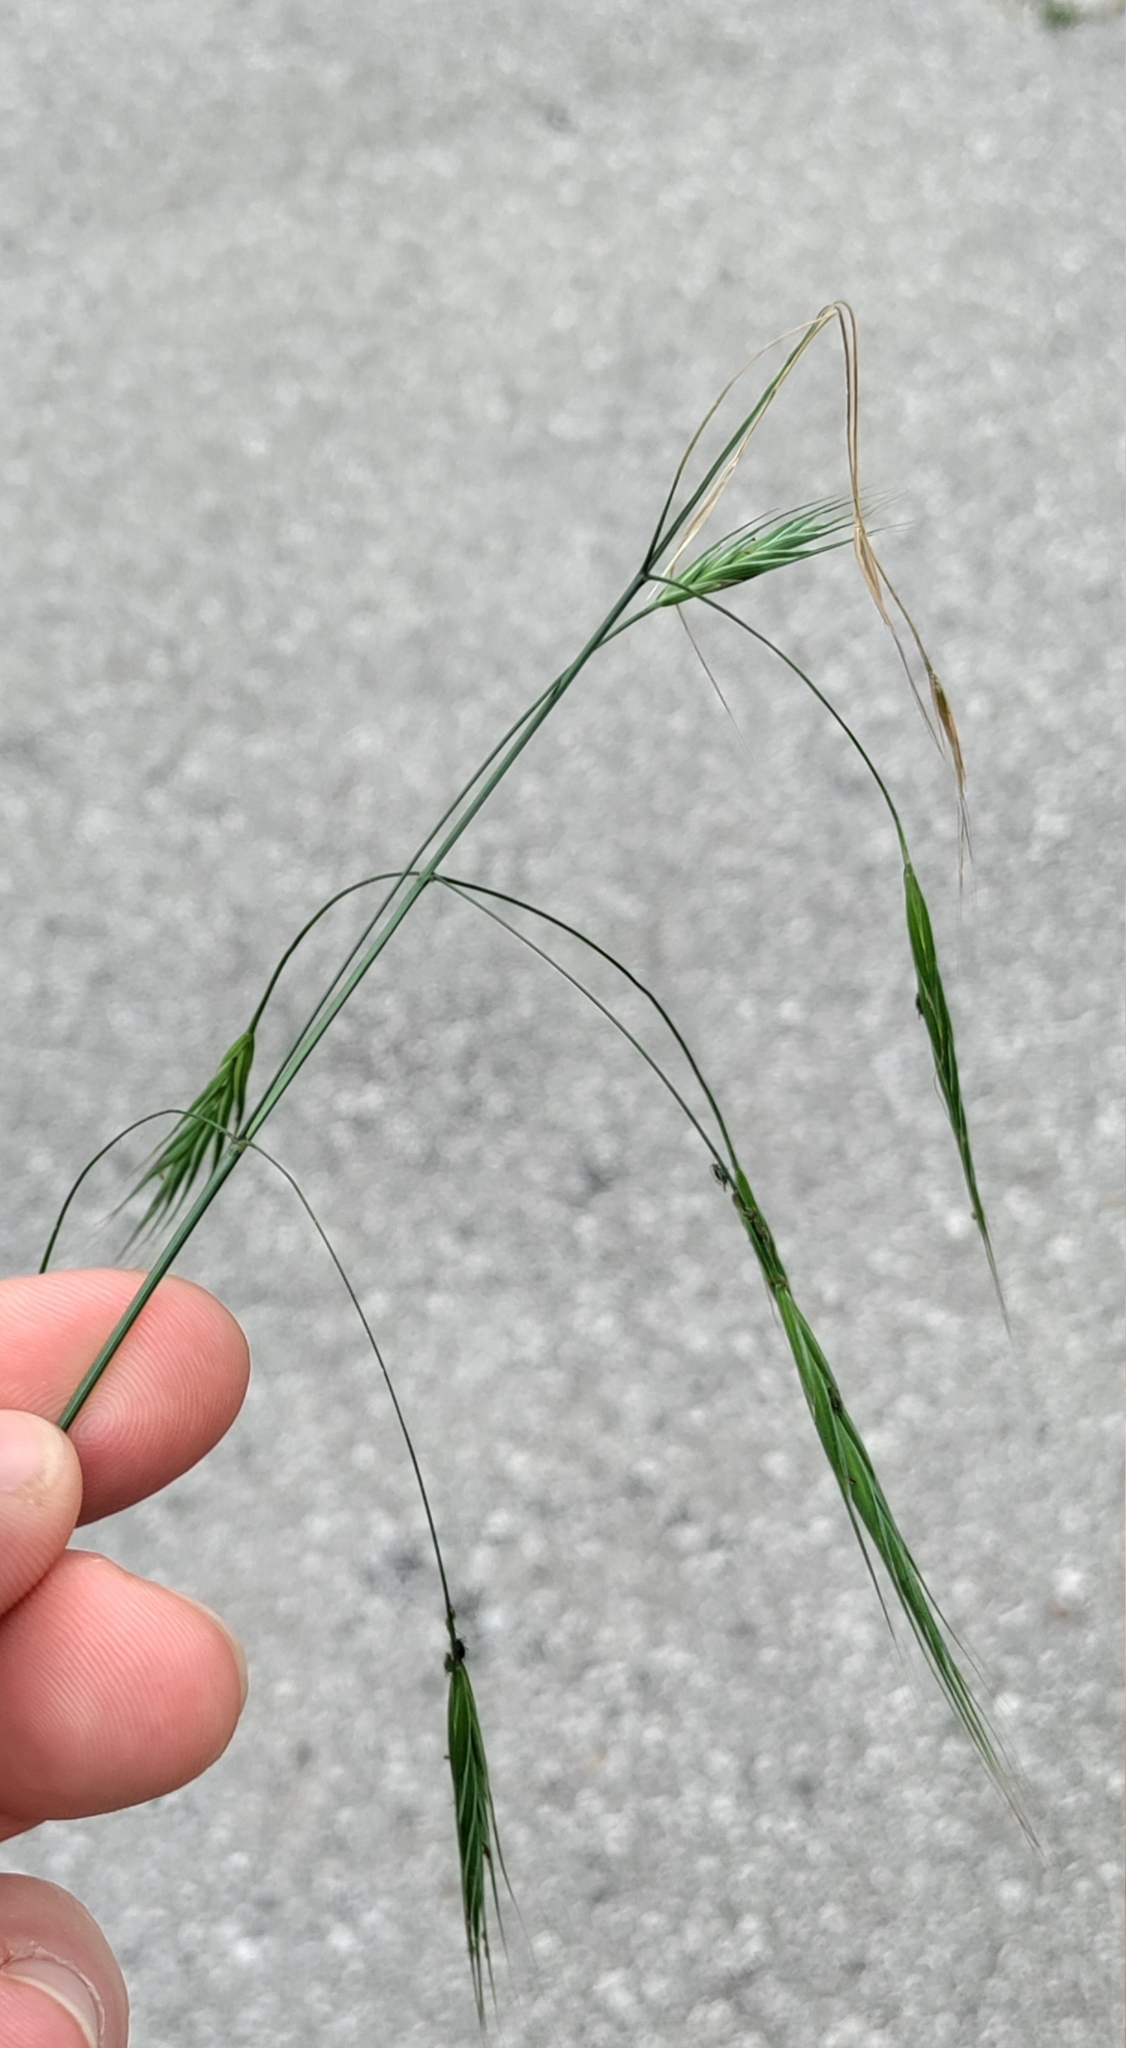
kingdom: Plantae
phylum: Tracheophyta
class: Liliopsida
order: Poales
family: Poaceae
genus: Bromus
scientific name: Bromus sterilis
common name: Poverty brome
